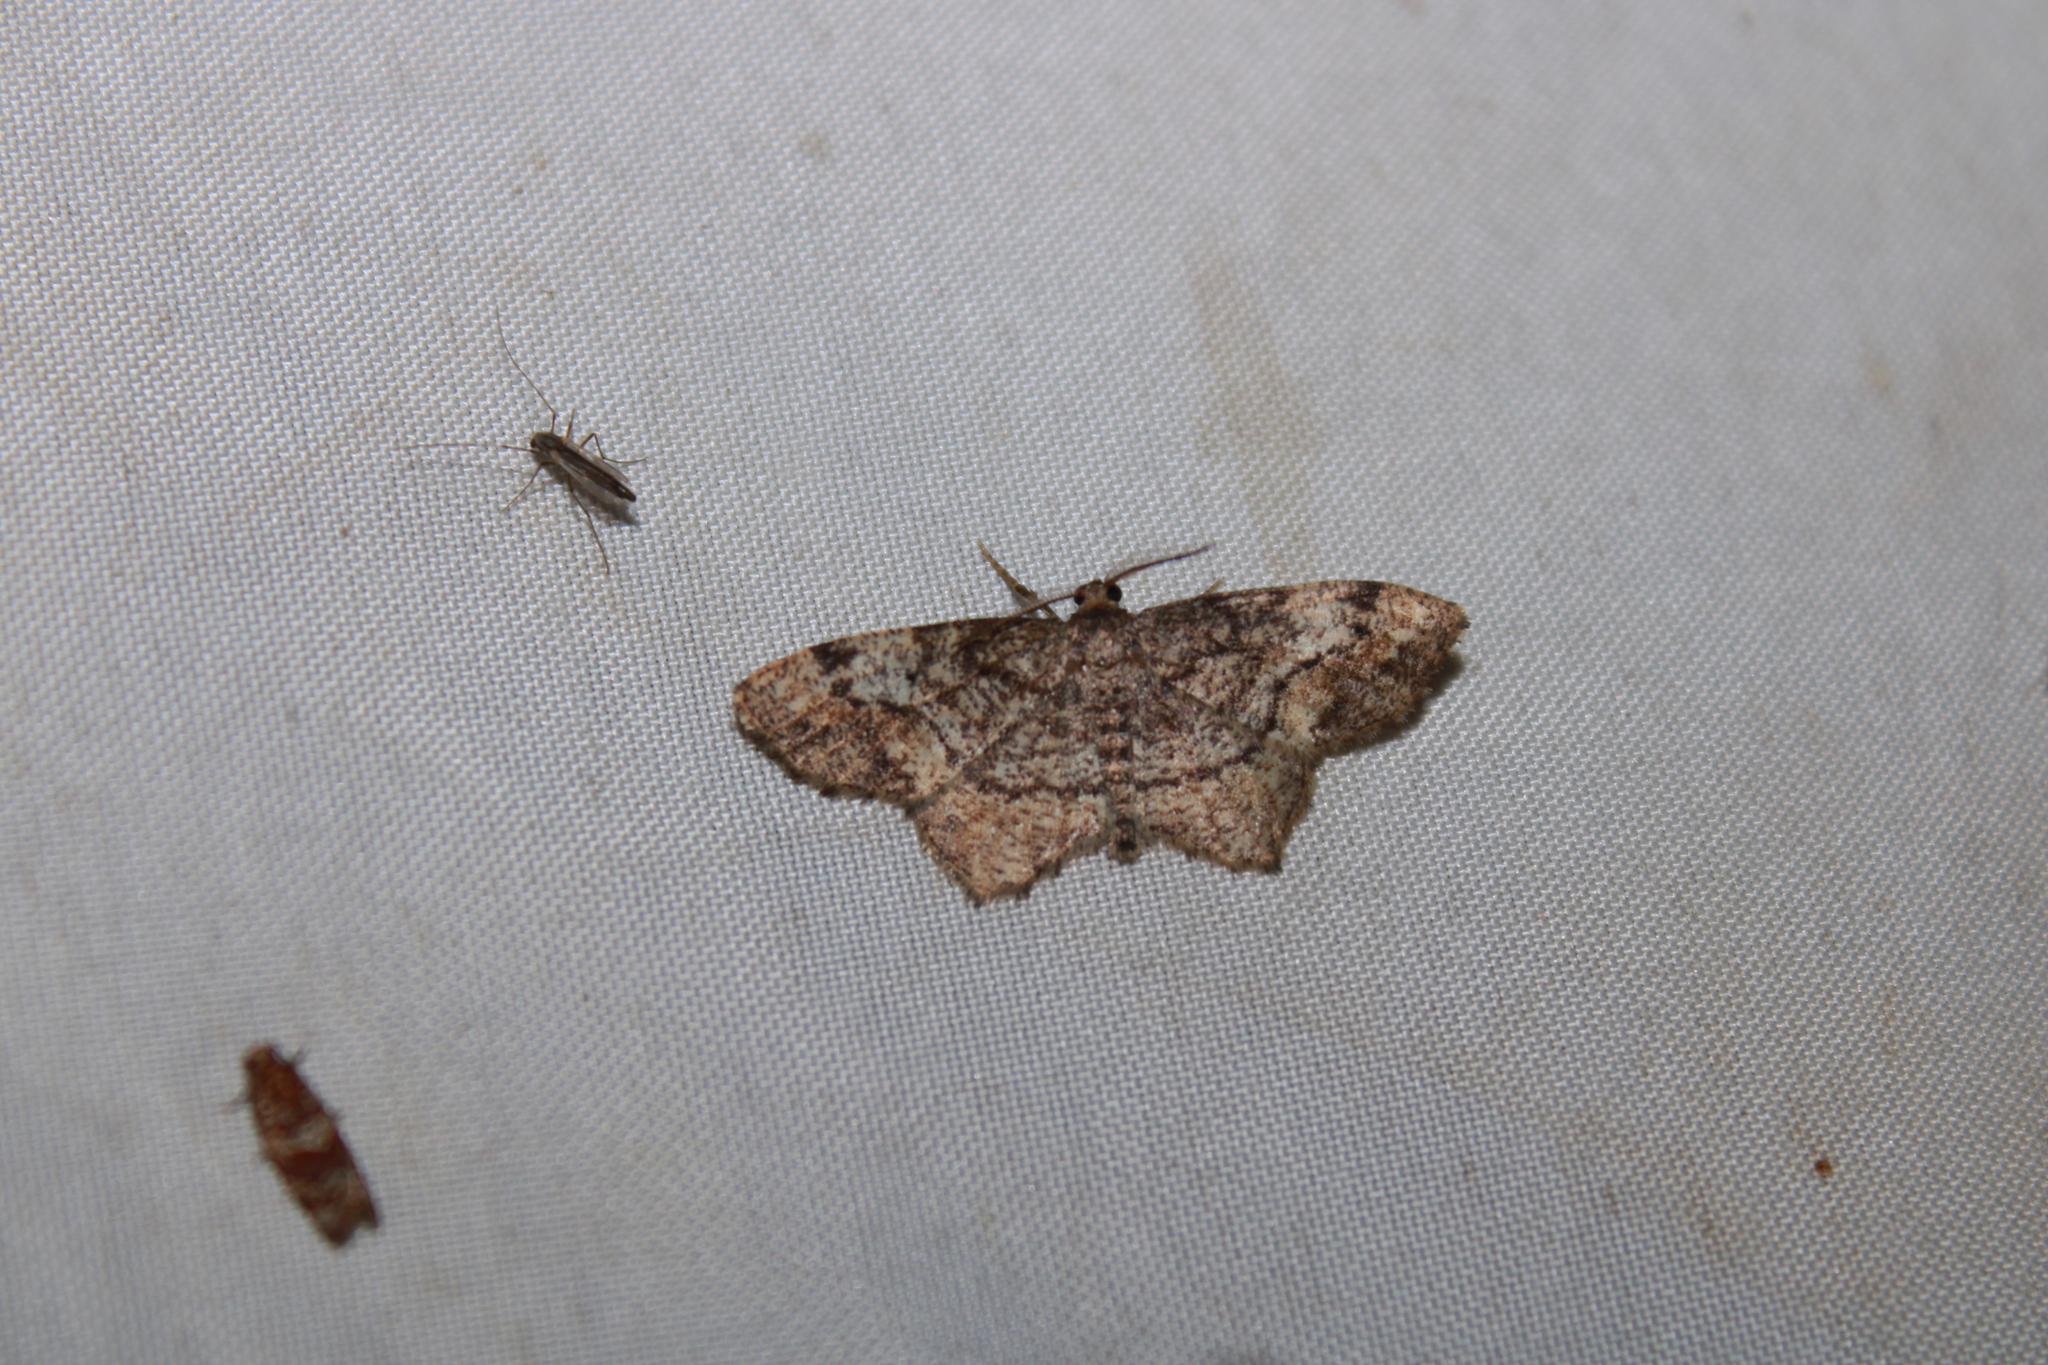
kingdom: Animalia
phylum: Arthropoda
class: Insecta
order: Lepidoptera
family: Geometridae
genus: Hypagyrtis
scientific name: Hypagyrtis unipunctata
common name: One-spotted variant
